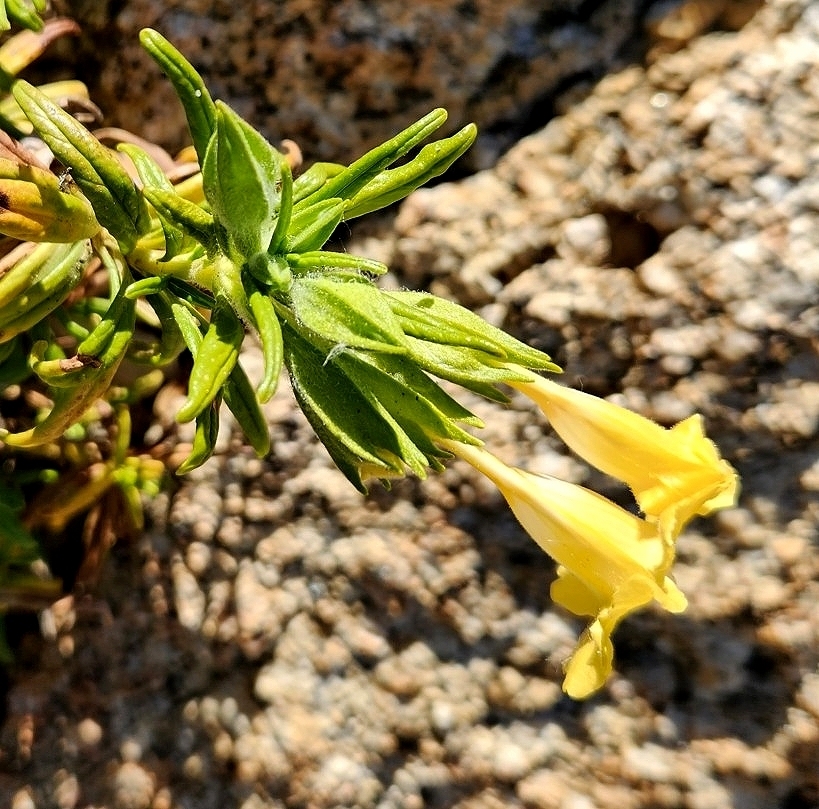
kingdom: Plantae
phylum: Tracheophyta
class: Magnoliopsida
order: Lamiales
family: Phrymaceae
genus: Diplacus
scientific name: Diplacus calycinus
